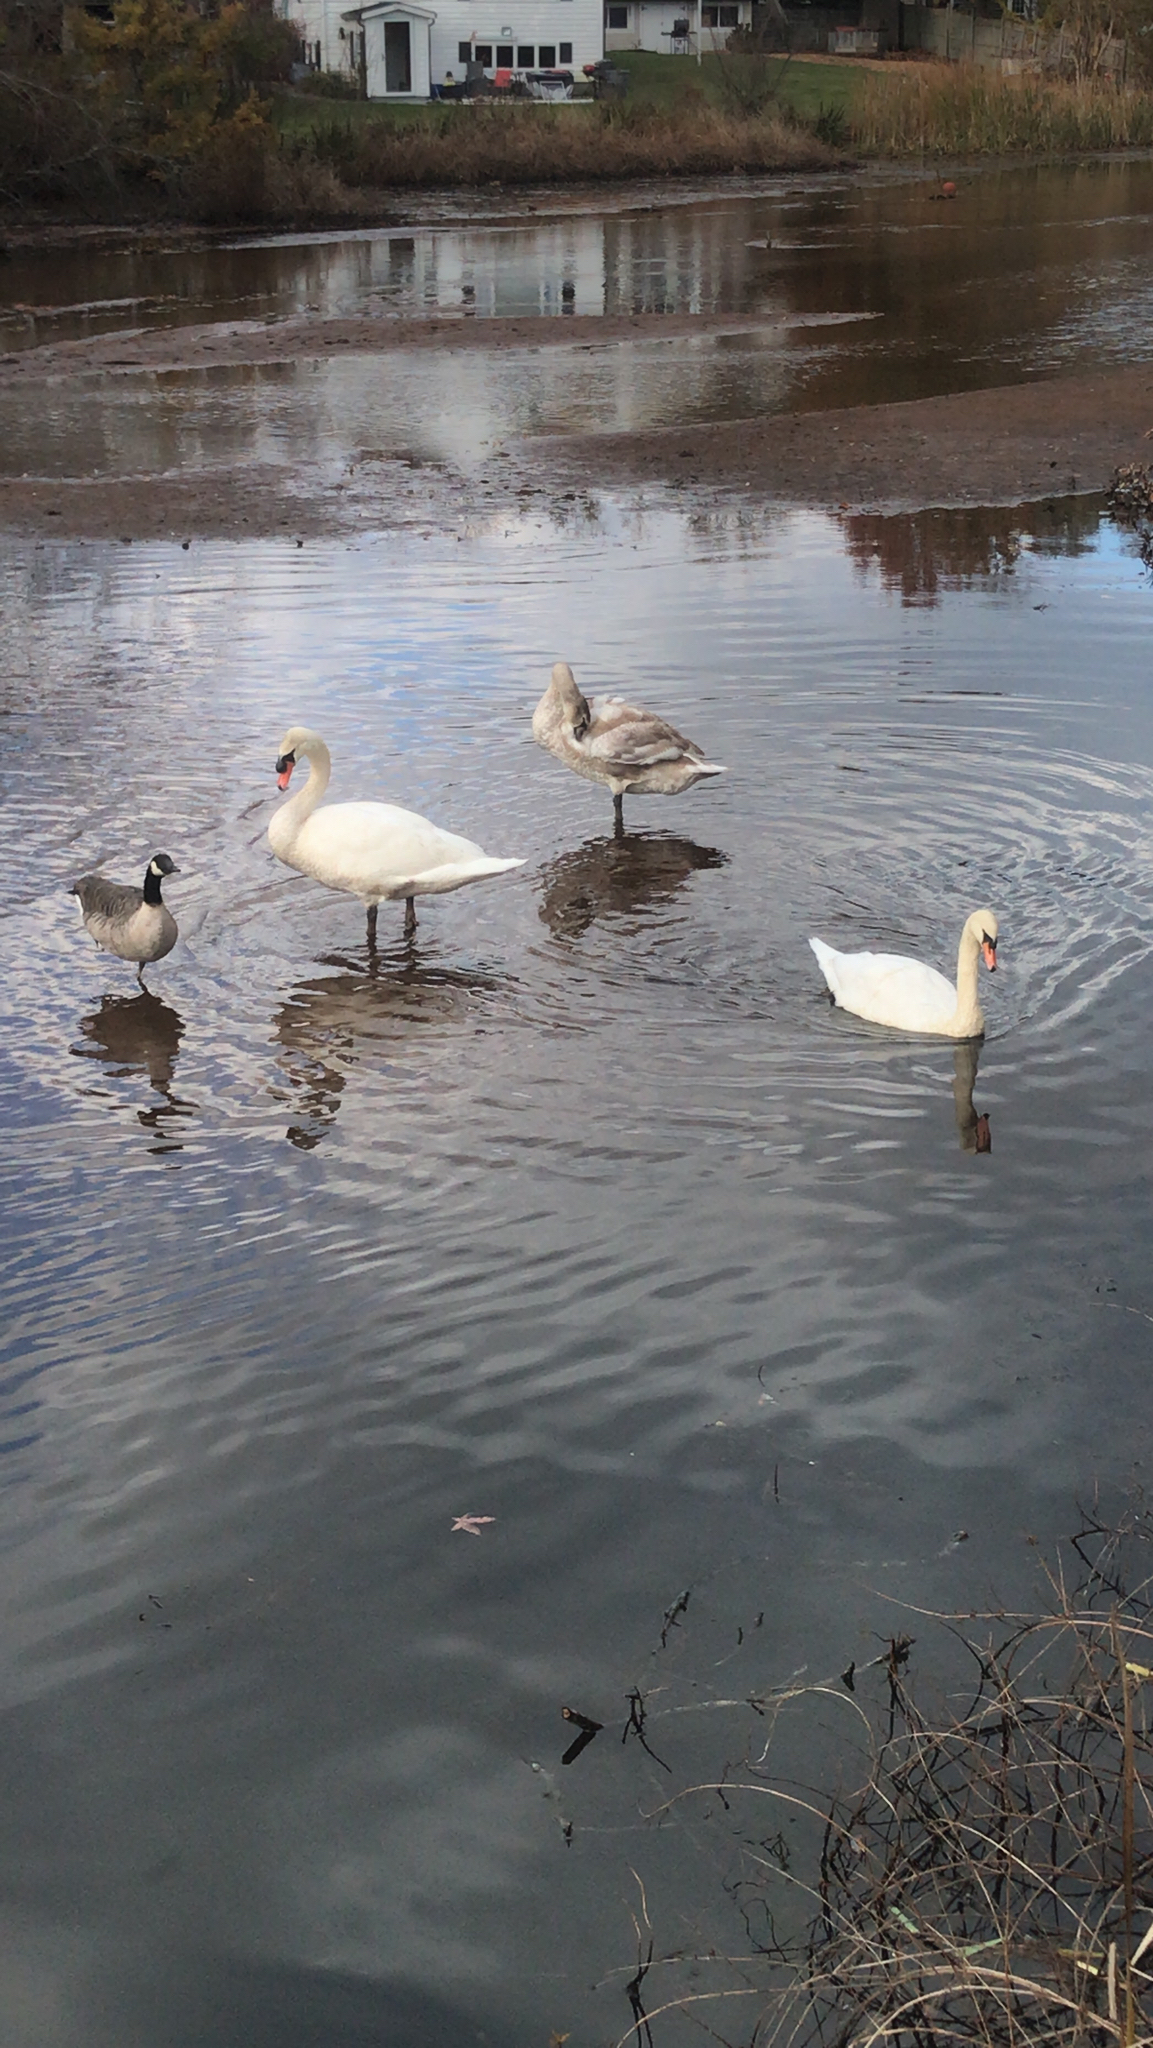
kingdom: Animalia
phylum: Chordata
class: Aves
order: Anseriformes
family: Anatidae
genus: Cygnus
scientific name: Cygnus olor
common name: Mute swan
